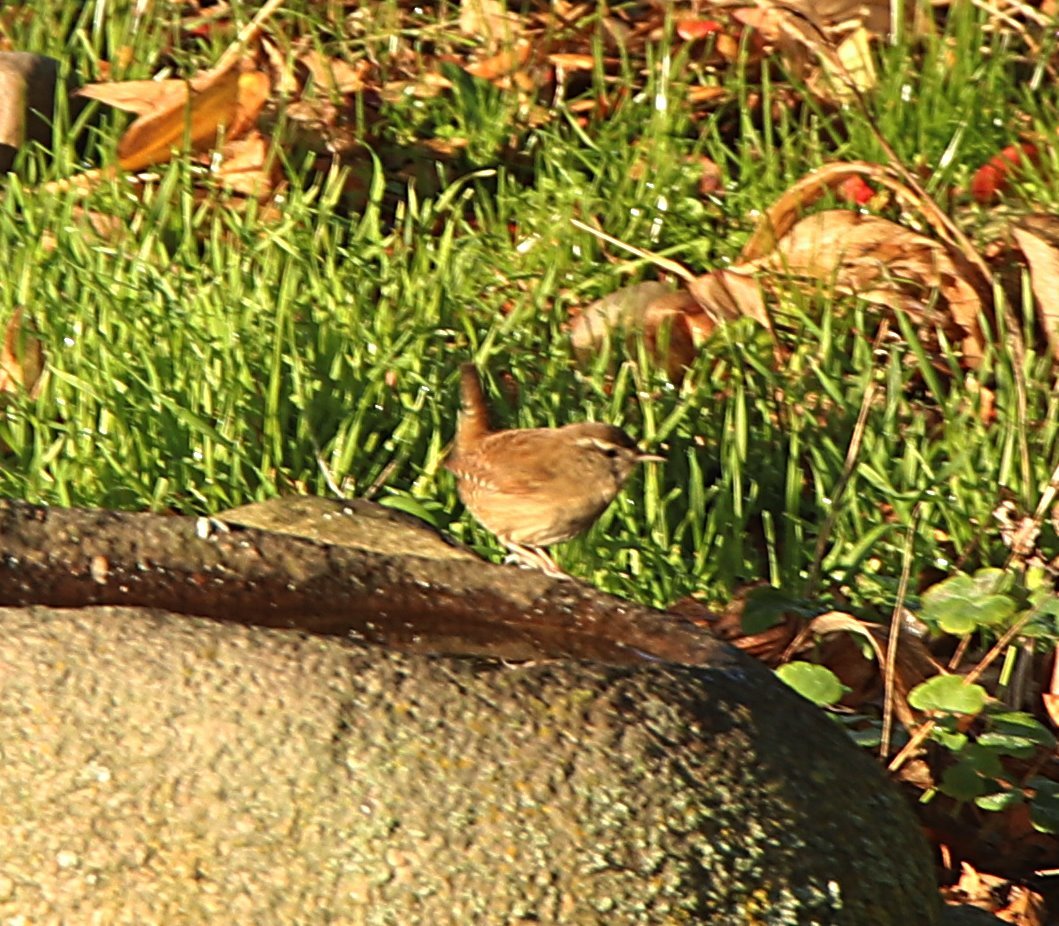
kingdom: Animalia
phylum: Chordata
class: Aves
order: Passeriformes
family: Troglodytidae
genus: Troglodytes
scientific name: Troglodytes troglodytes
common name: Eurasian wren
